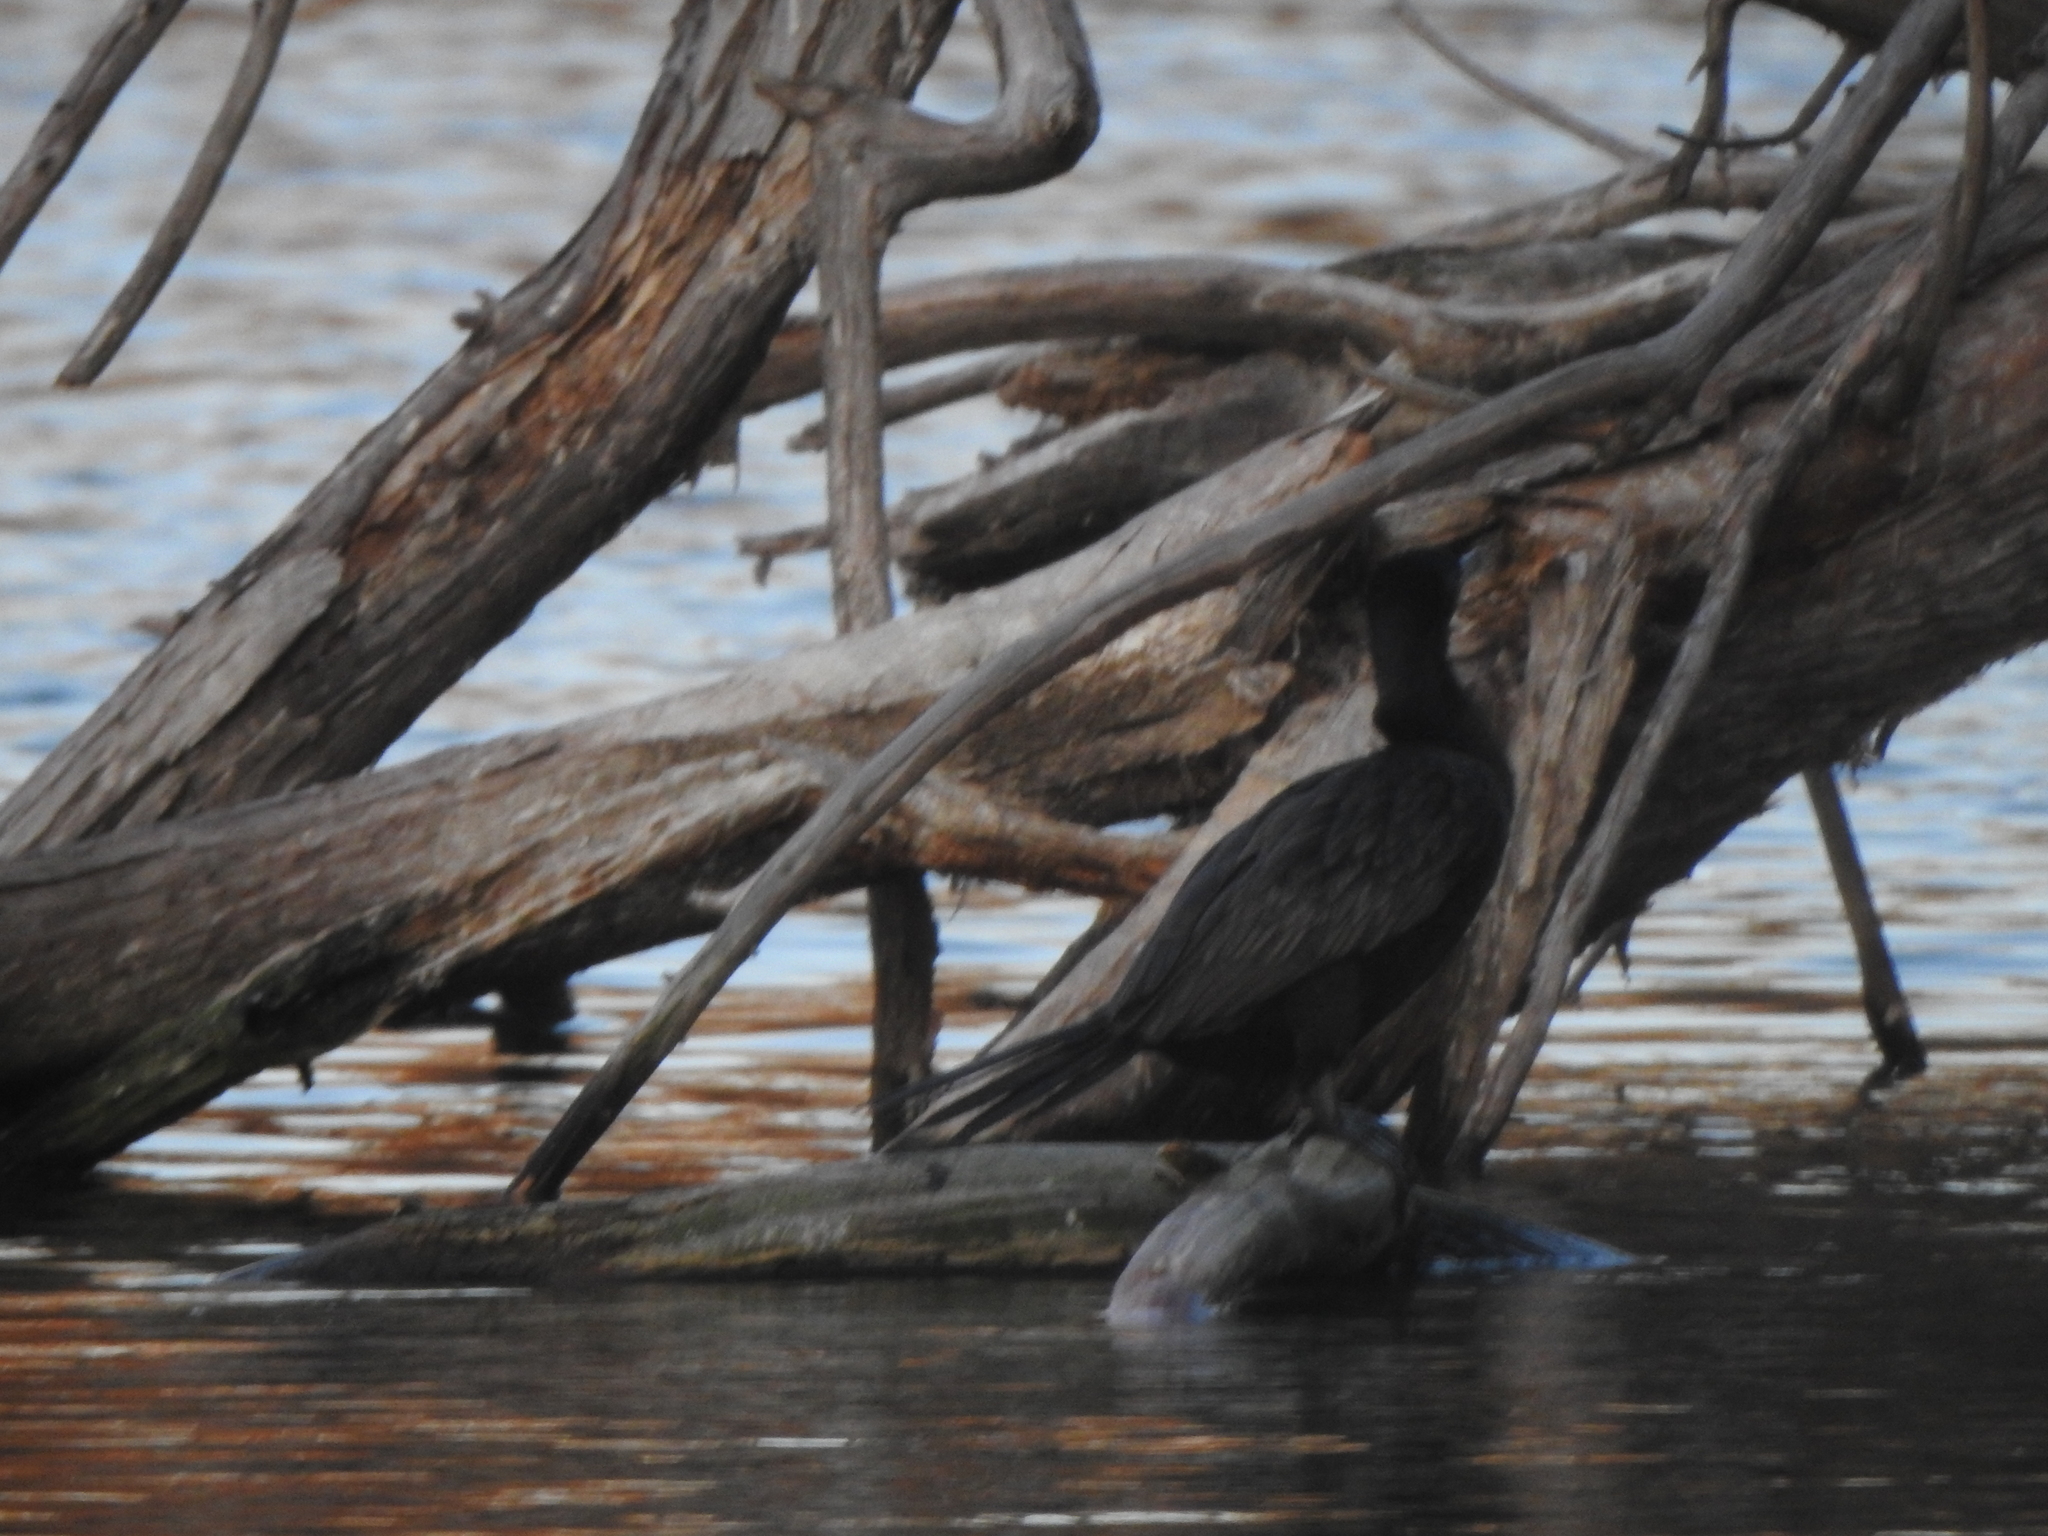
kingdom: Animalia
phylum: Chordata
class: Aves
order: Suliformes
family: Phalacrocoracidae
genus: Phalacrocorax
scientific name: Phalacrocorax brasilianus
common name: Neotropic cormorant
